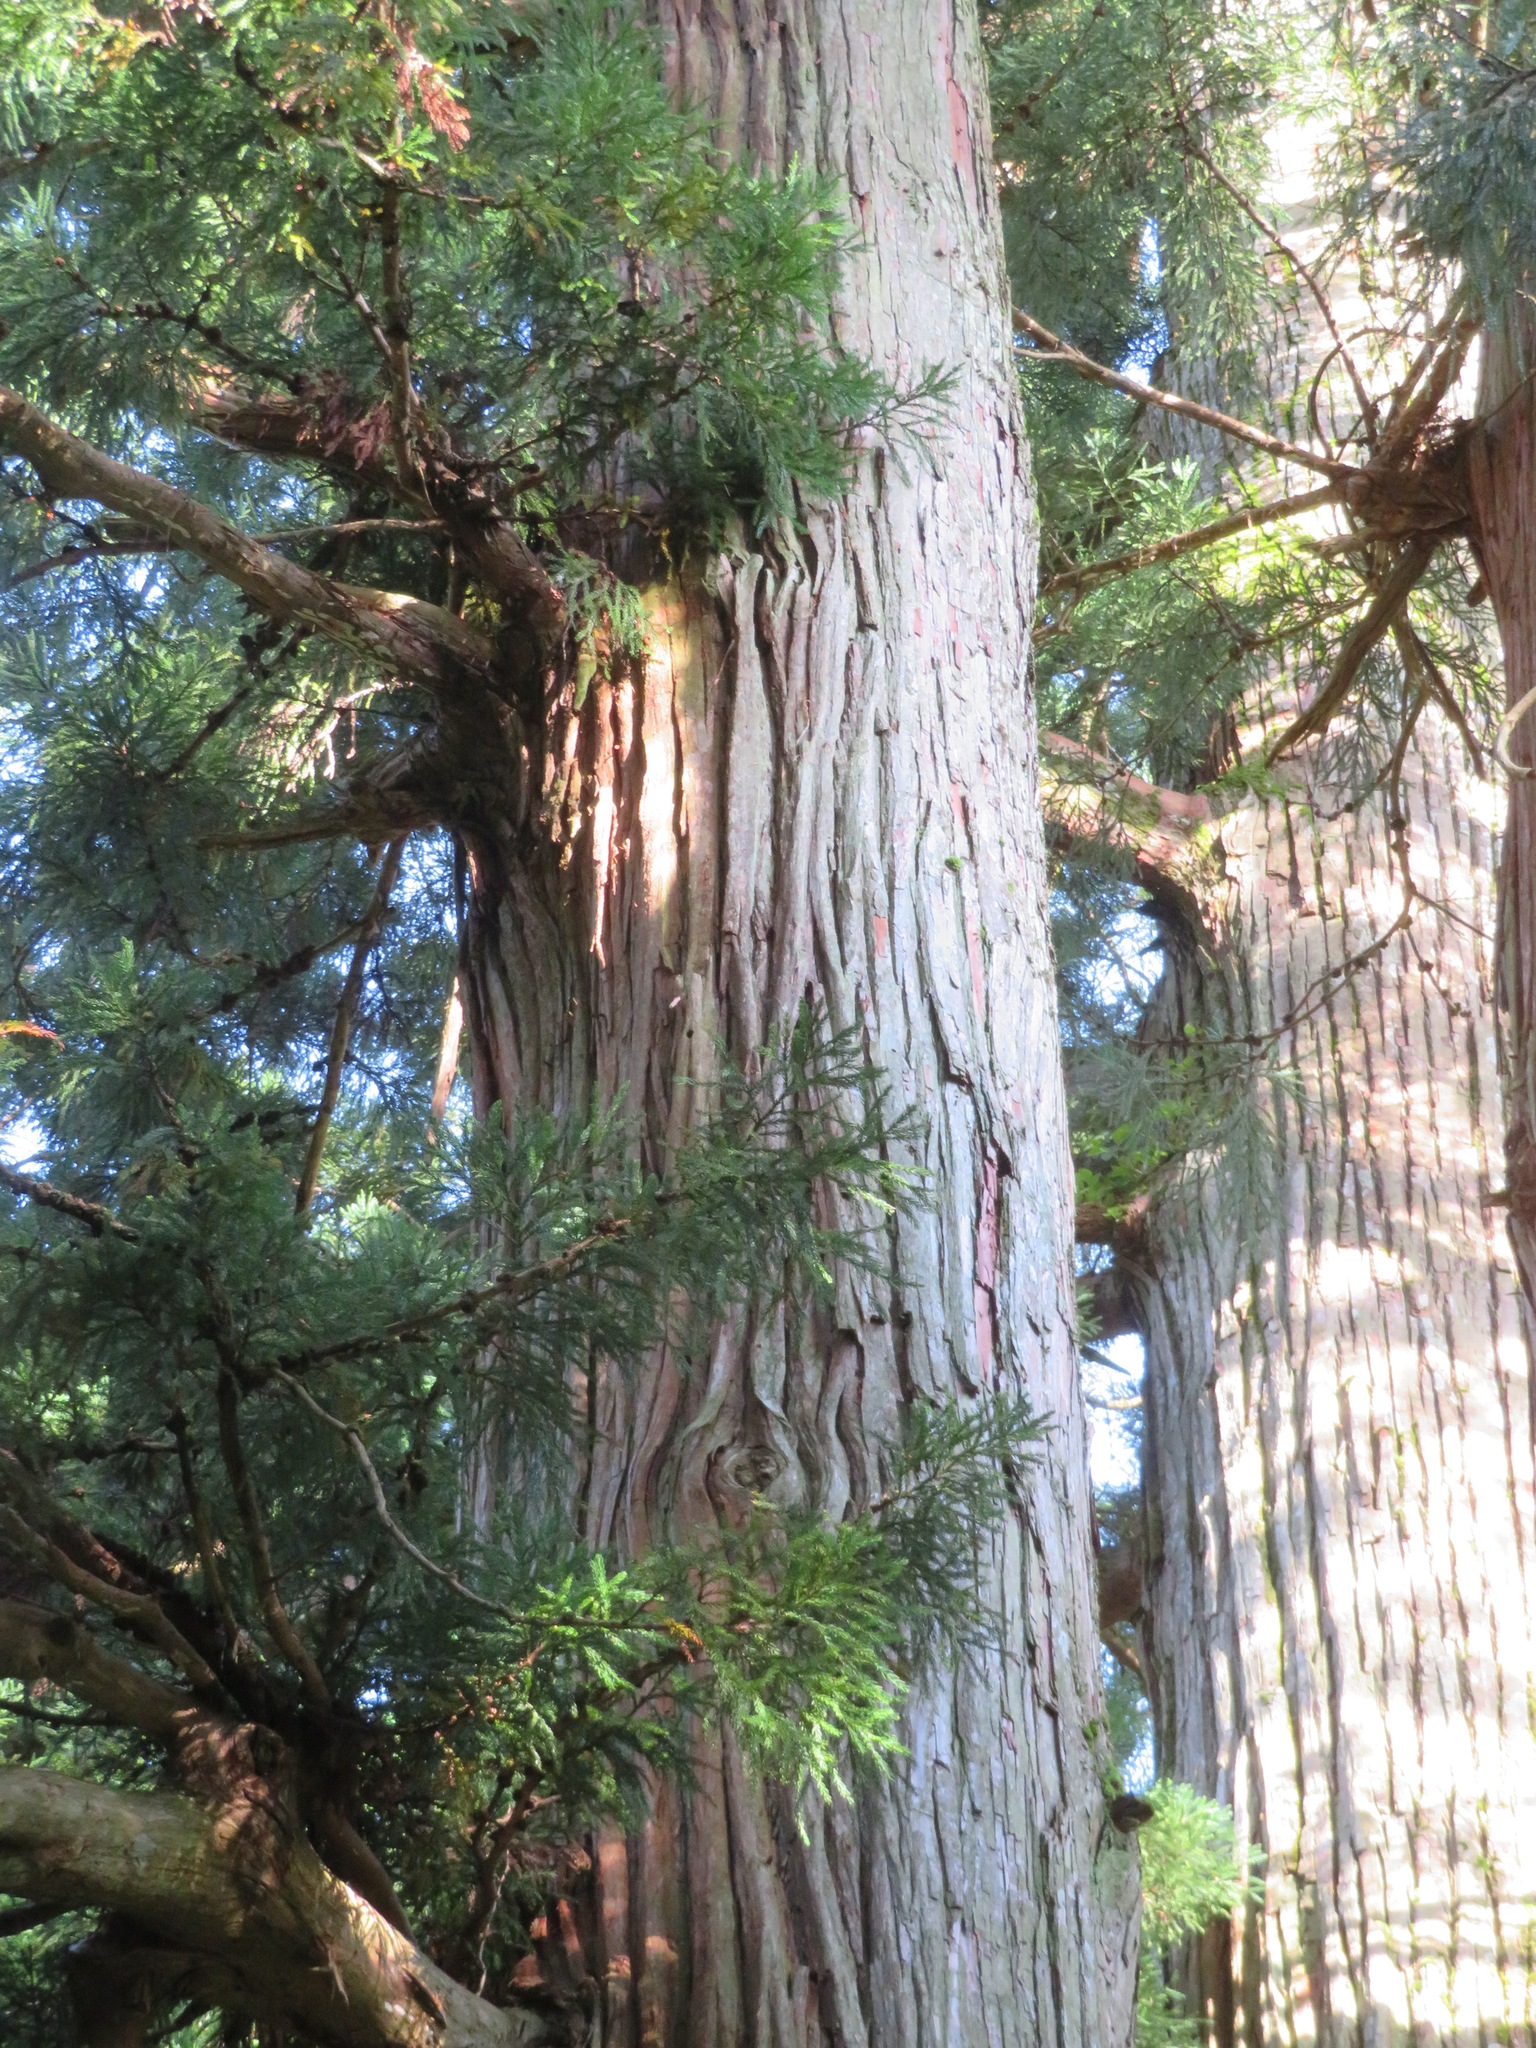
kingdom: Plantae
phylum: Tracheophyta
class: Pinopsida
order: Pinales
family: Cupressaceae
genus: Cryptomeria
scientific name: Cryptomeria japonica
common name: Japanese cedar
